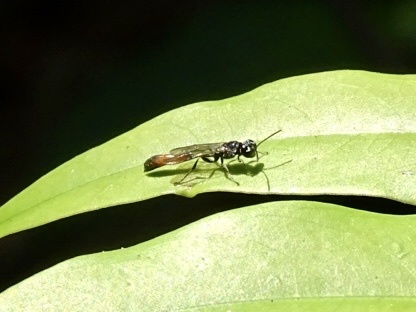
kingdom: Animalia
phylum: Arthropoda
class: Insecta
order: Hymenoptera
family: Crabronidae
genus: Trypoxylon
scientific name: Trypoxylon petiolatum
